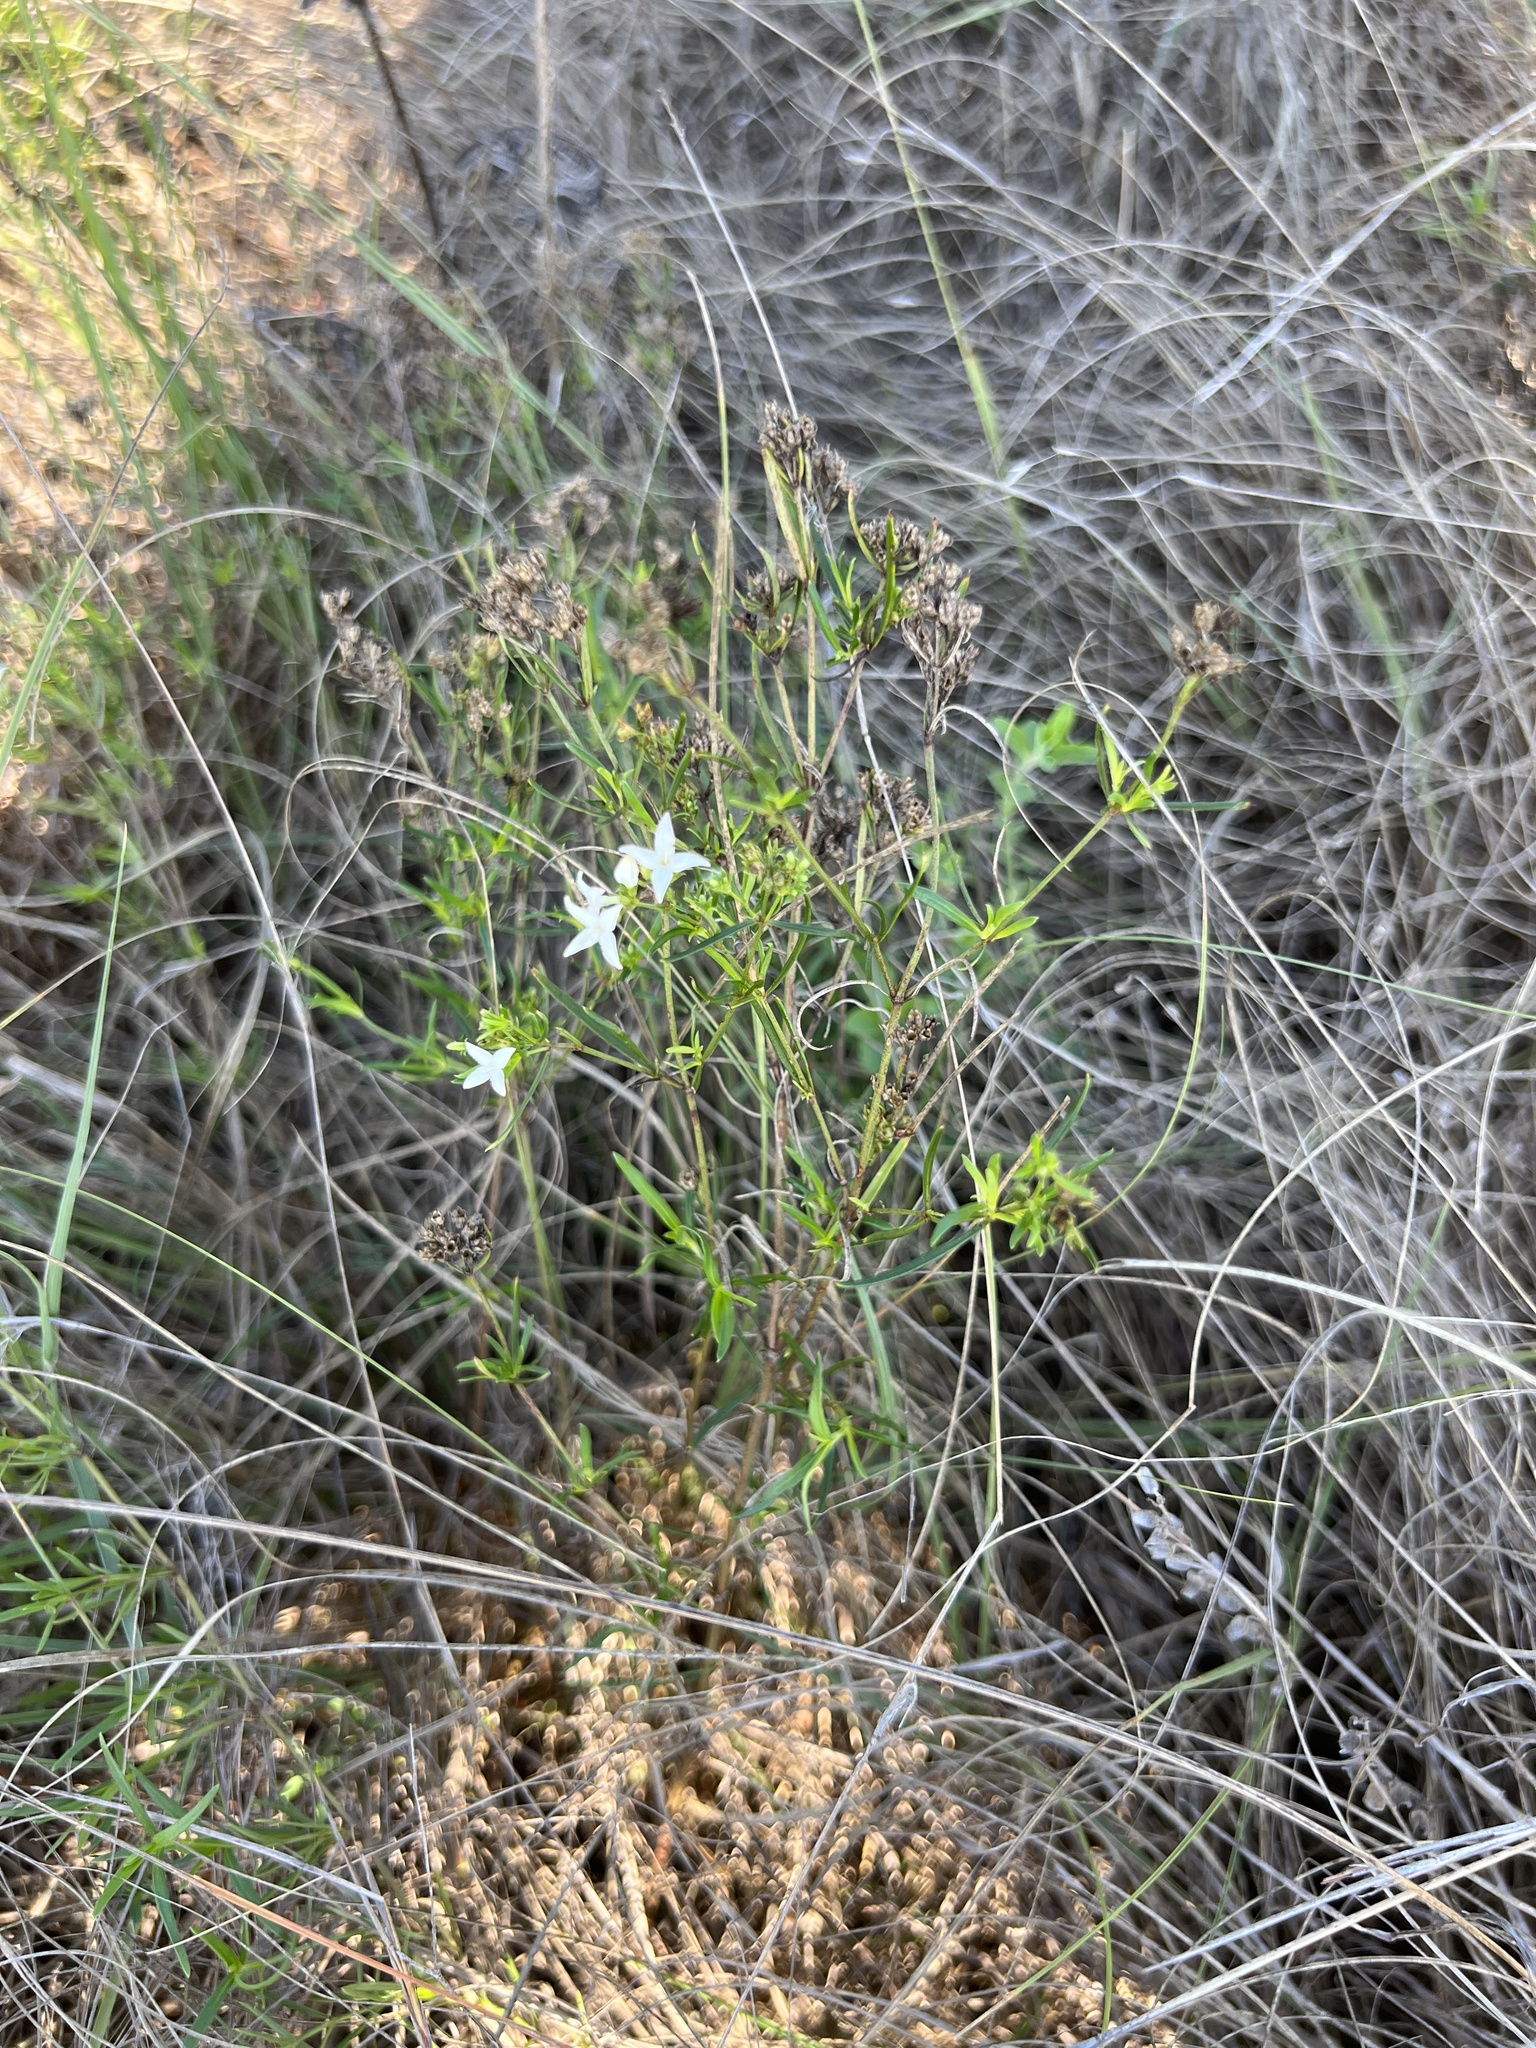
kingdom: Plantae
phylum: Tracheophyta
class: Magnoliopsida
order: Gentianales
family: Rubiaceae
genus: Stenaria
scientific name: Stenaria nigricans
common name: Diamondflowers
